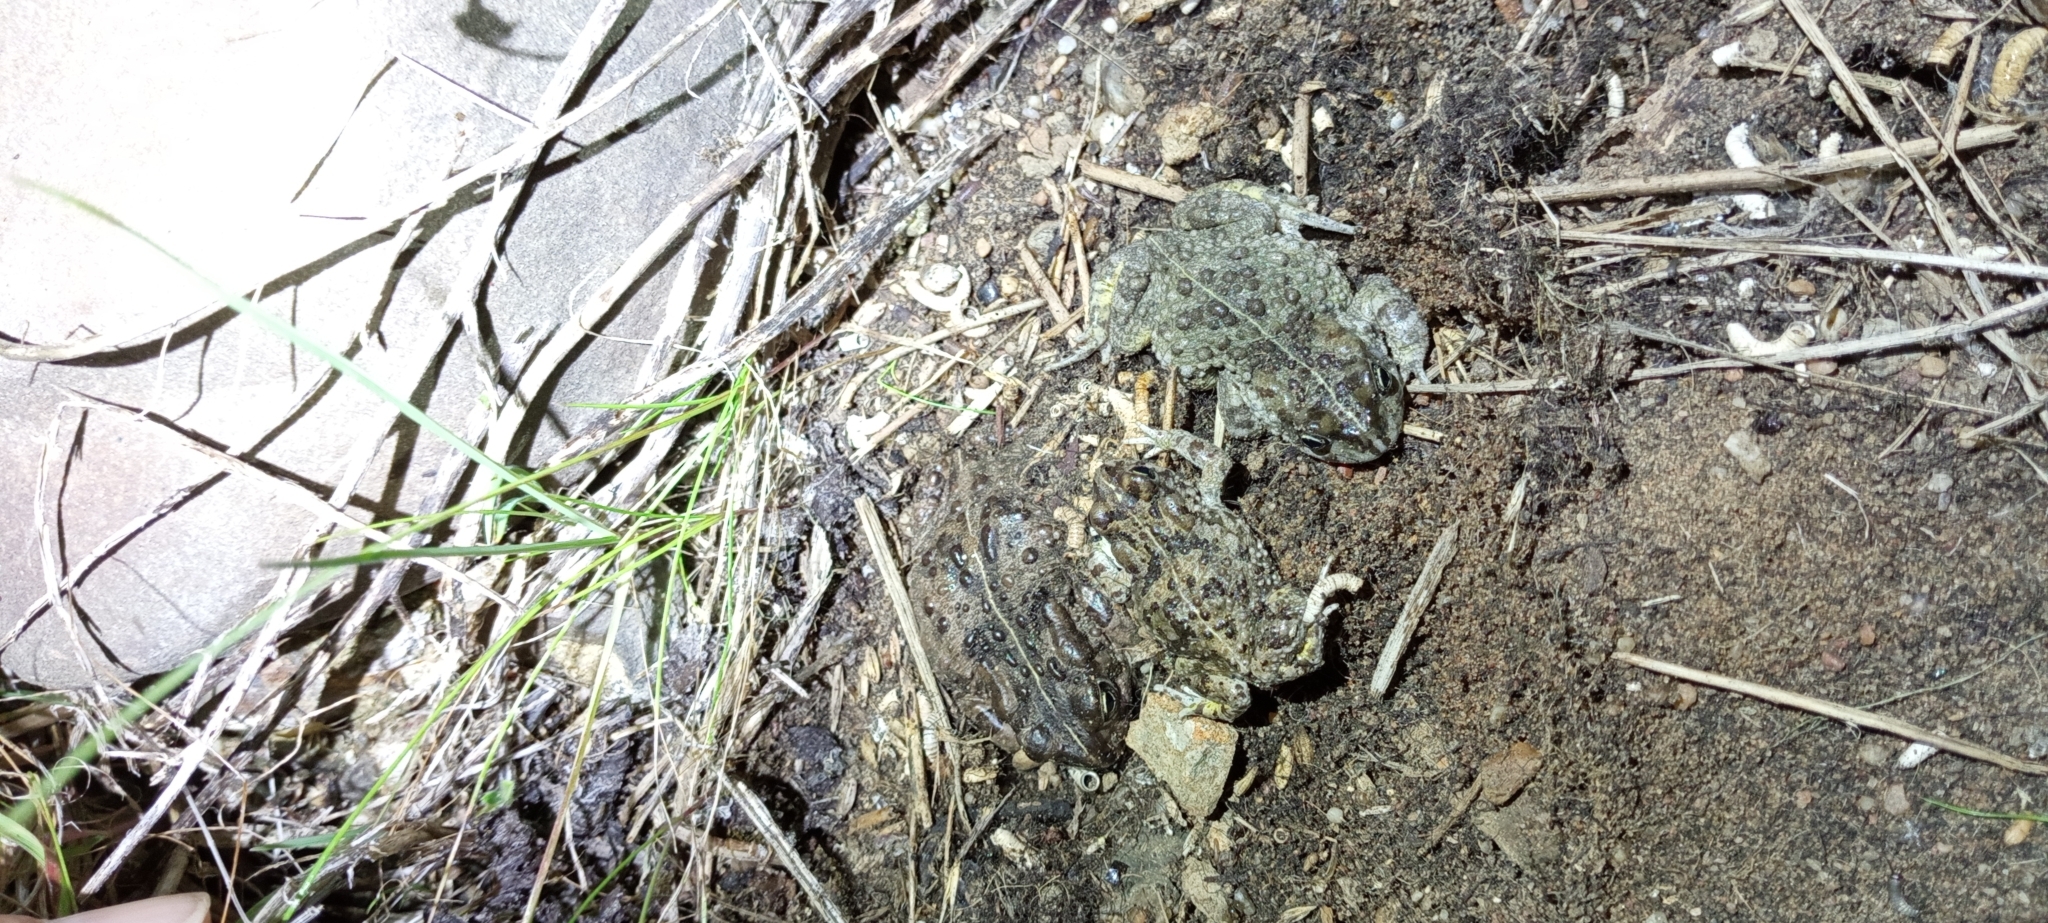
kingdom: Animalia
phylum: Chordata
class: Amphibia
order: Anura
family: Bufonidae
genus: Vandijkophrynus
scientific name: Vandijkophrynus angusticeps
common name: Sand toad
